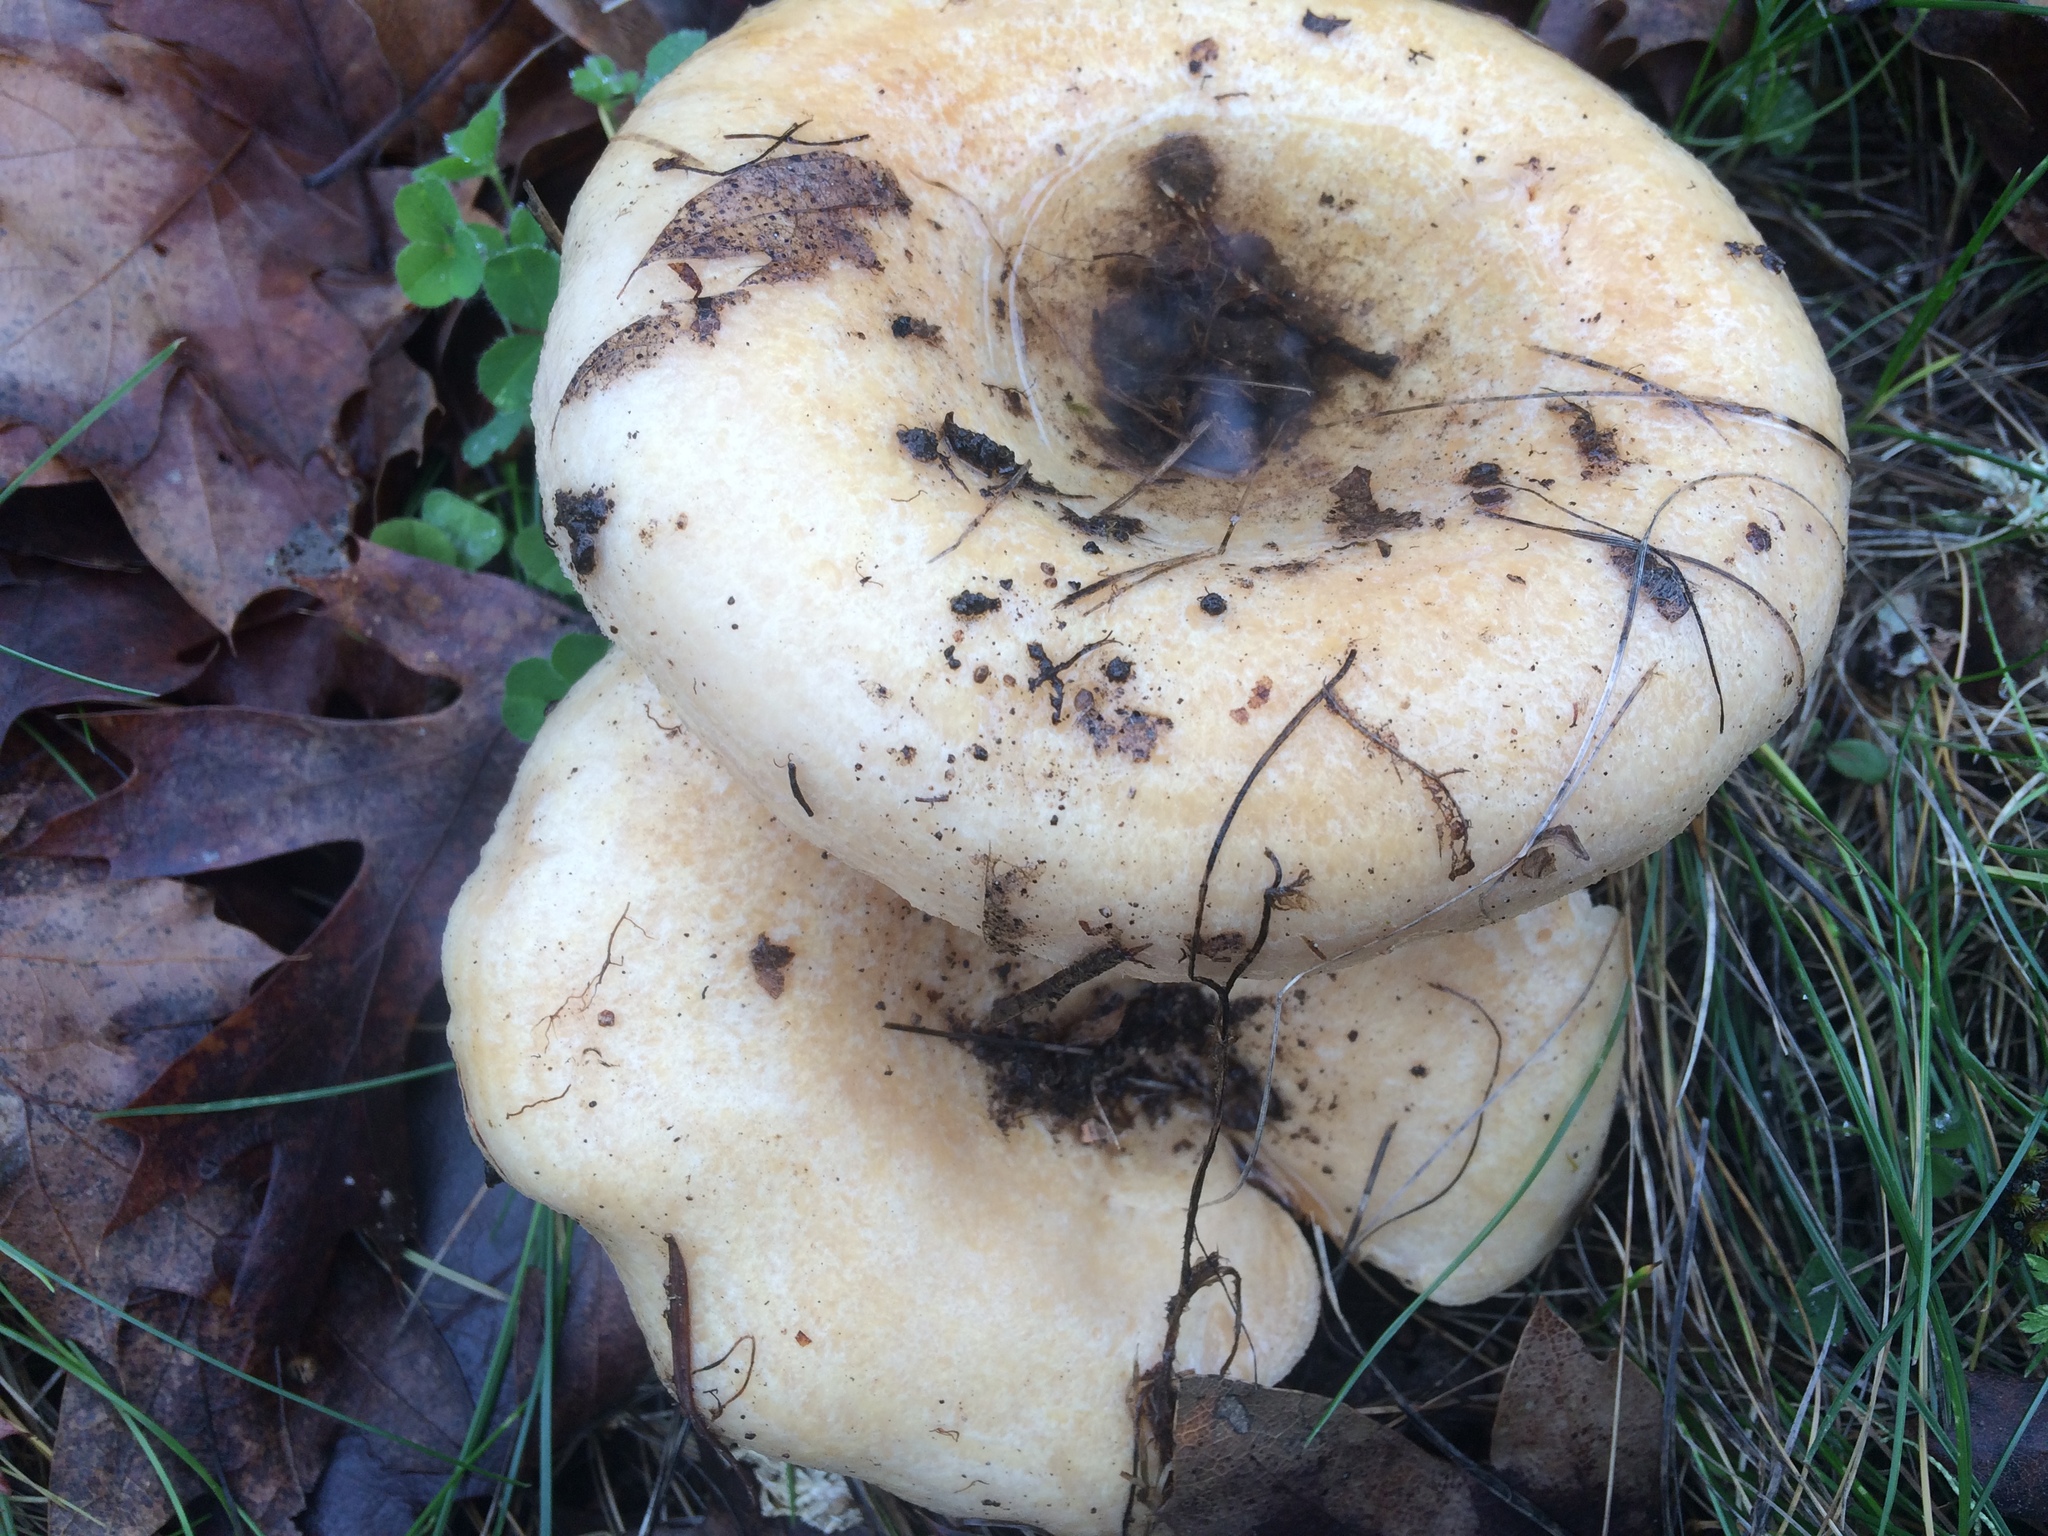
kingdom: Fungi
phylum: Basidiomycota
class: Agaricomycetes
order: Russulales
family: Russulaceae
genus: Russula
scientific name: Russula brevipes
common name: Short-stemmed russula
